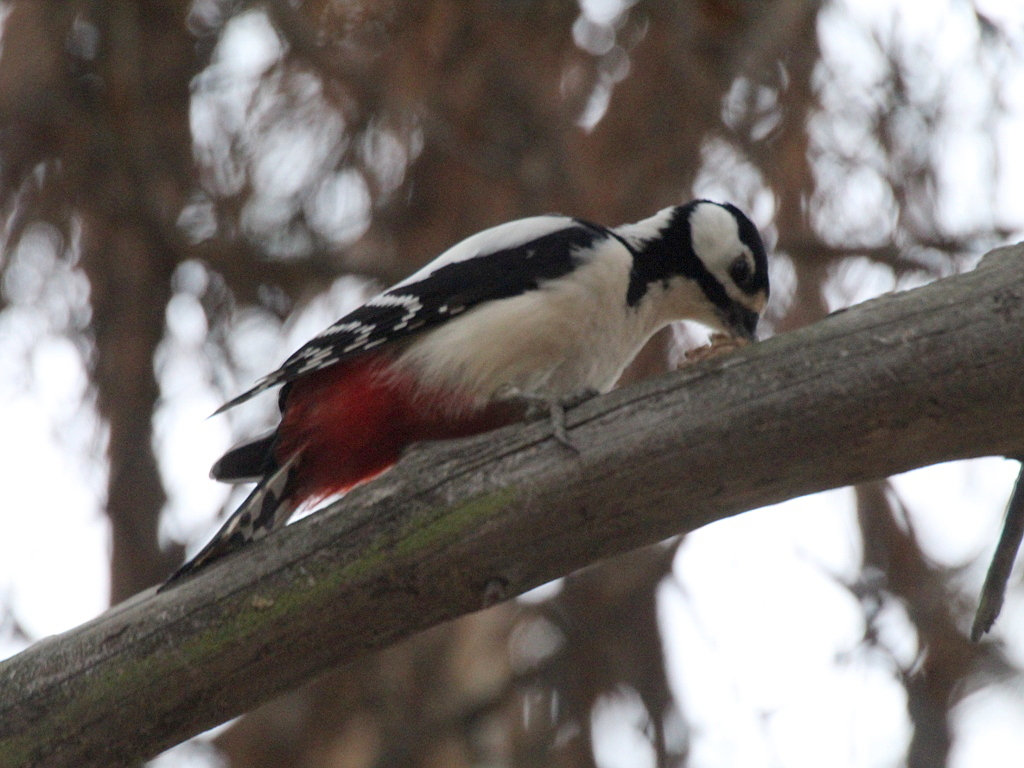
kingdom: Animalia
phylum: Chordata
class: Aves
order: Piciformes
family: Picidae
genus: Dendrocopos
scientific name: Dendrocopos major
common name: Great spotted woodpecker
